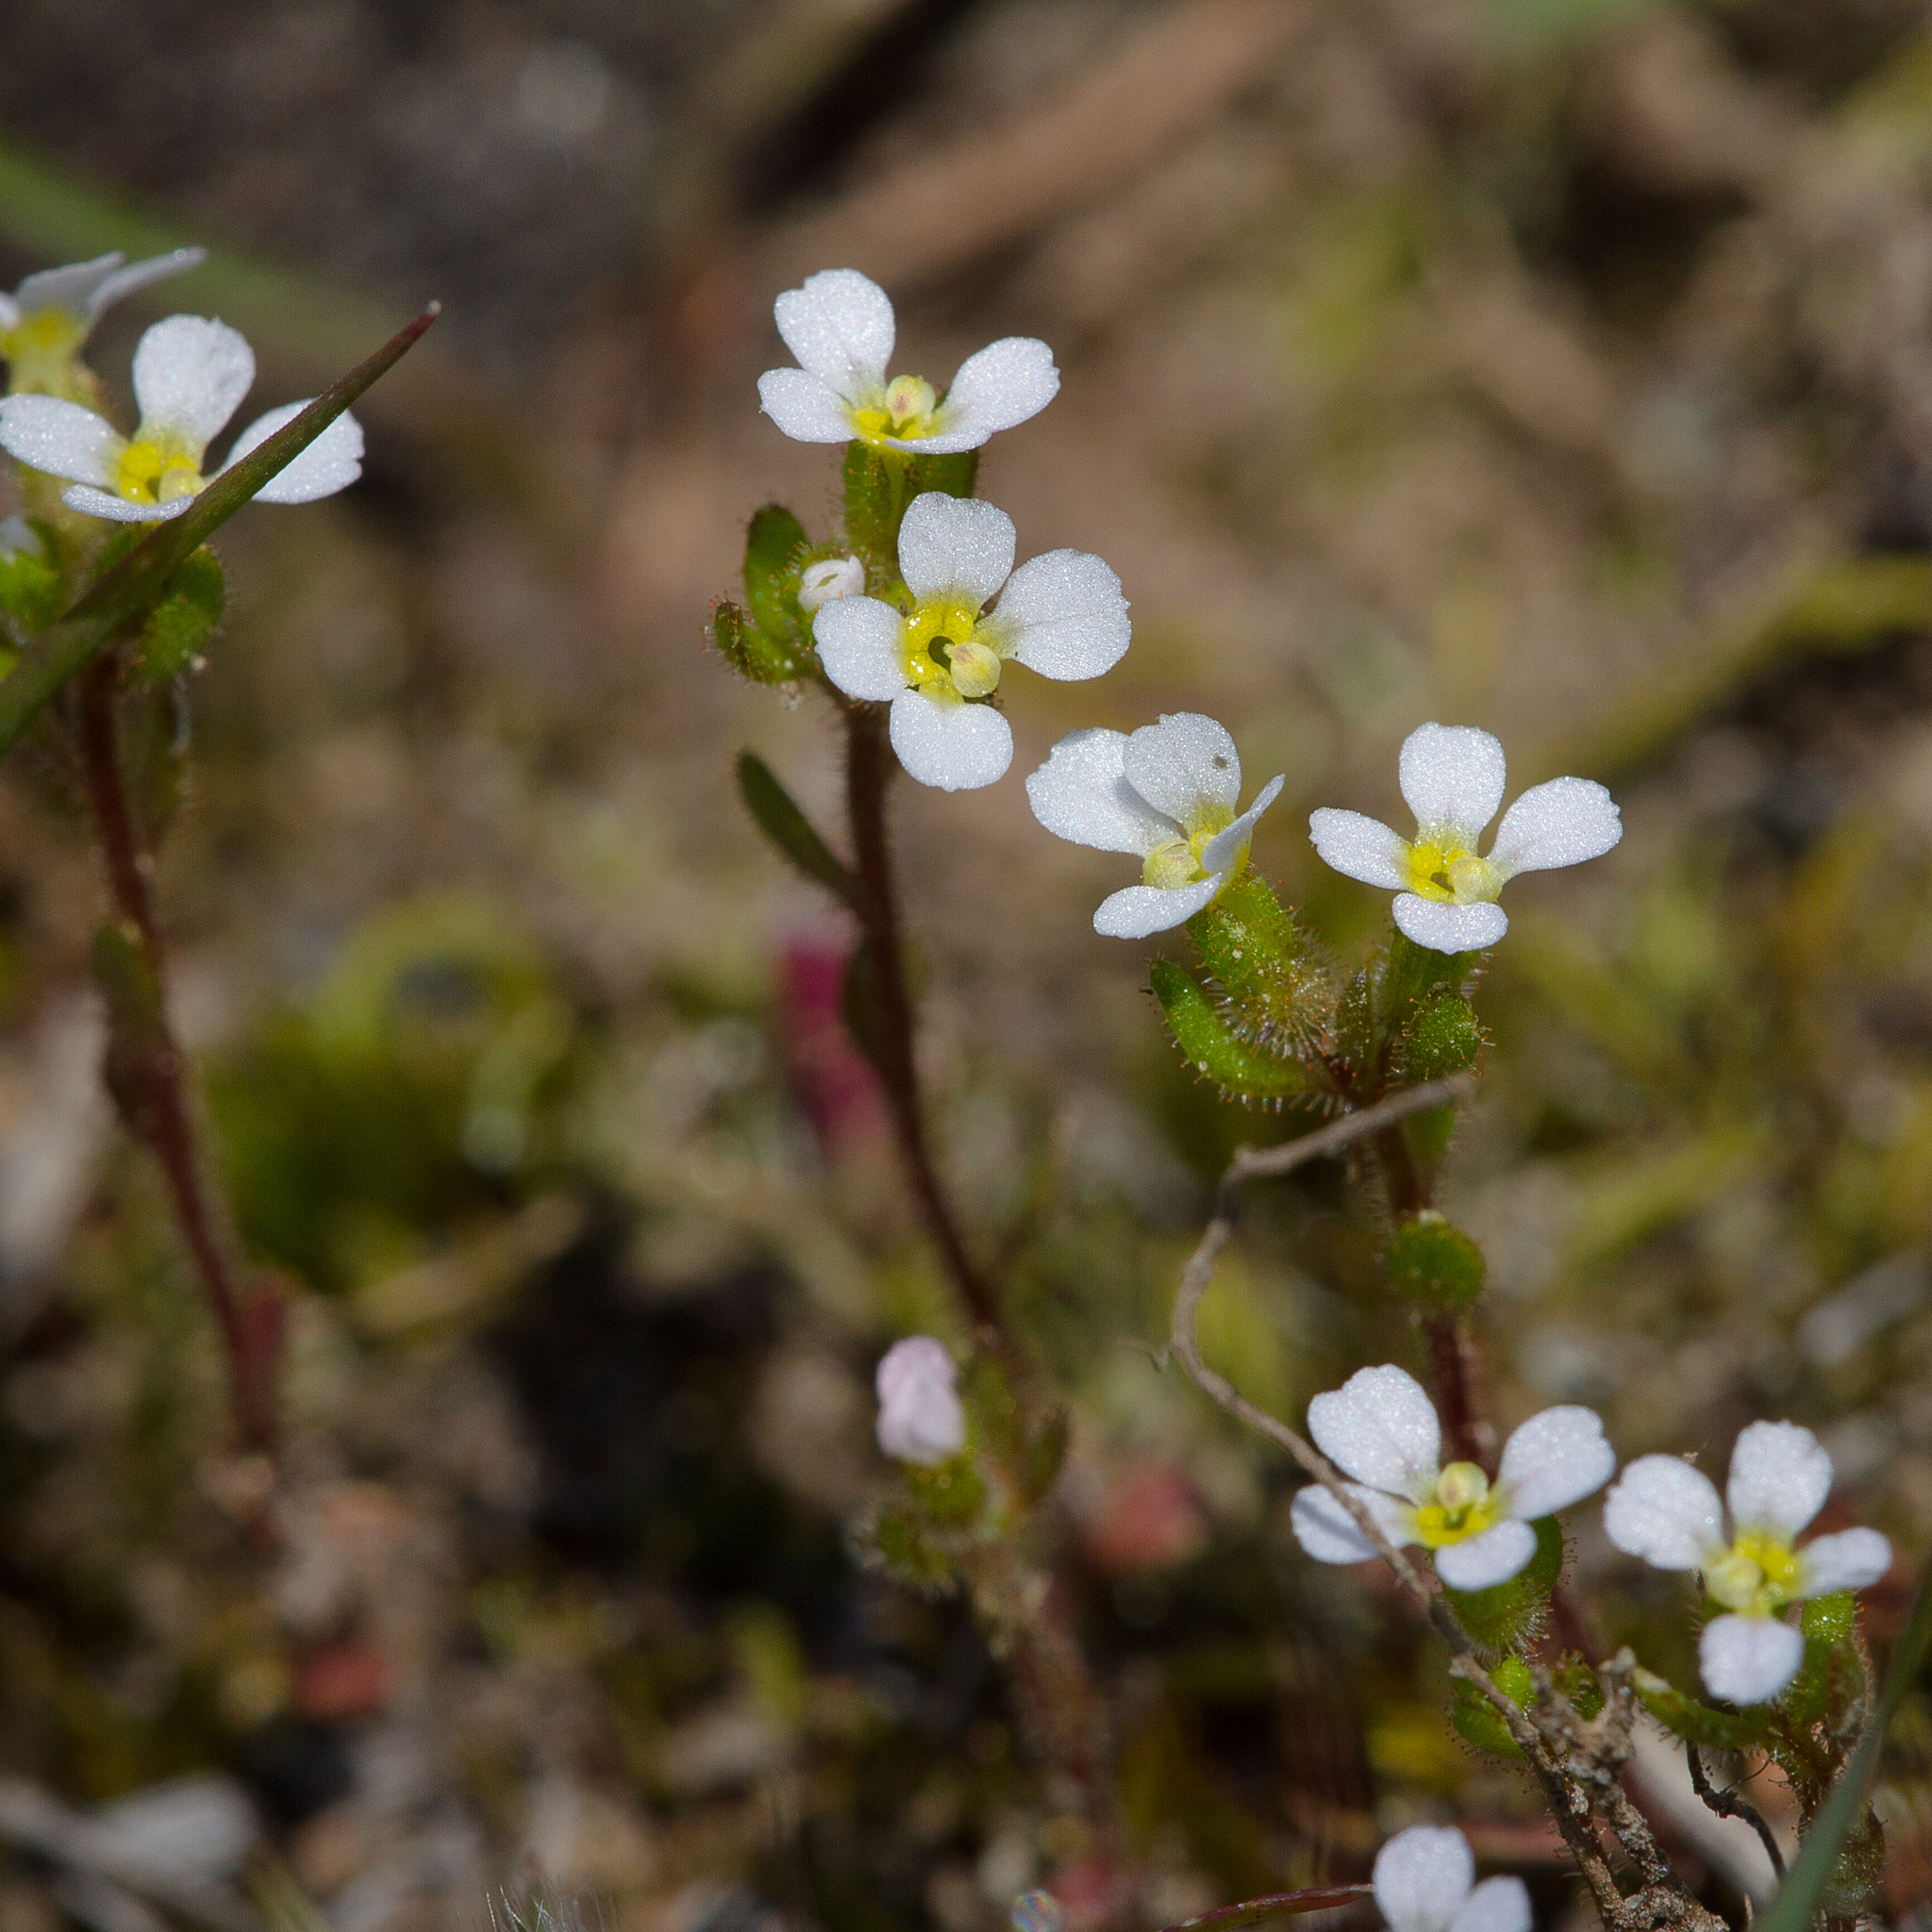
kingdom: Plantae
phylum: Tracheophyta
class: Magnoliopsida
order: Asterales
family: Stylidiaceae
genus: Levenhookia
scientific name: Levenhookia dubia
